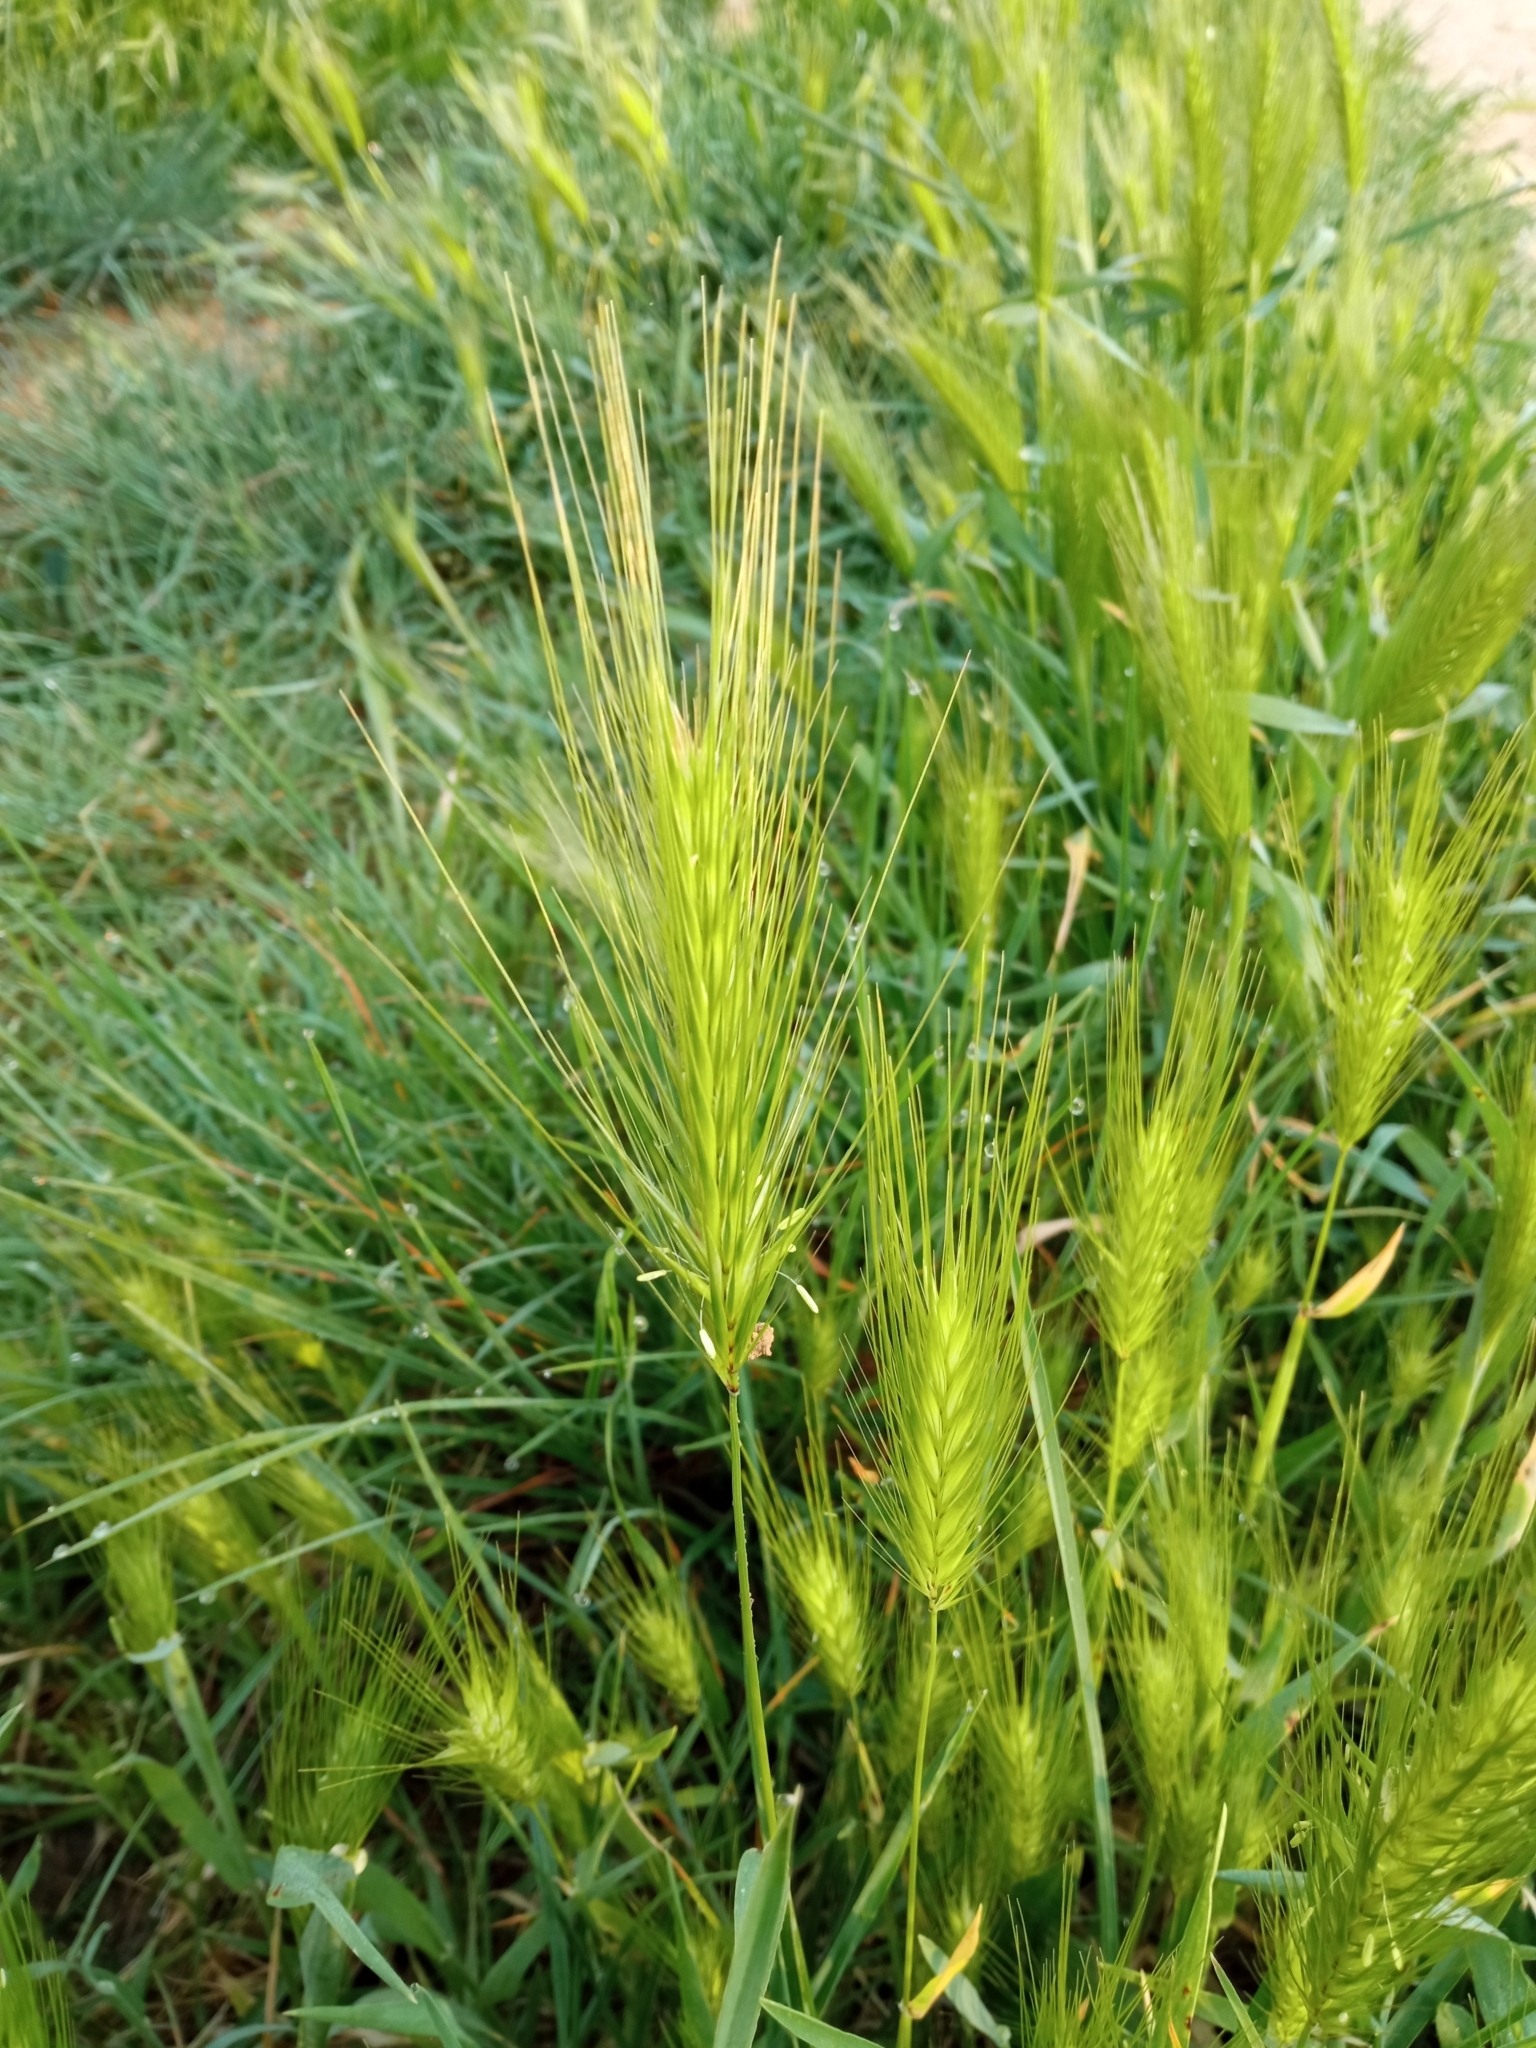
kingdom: Plantae
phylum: Tracheophyta
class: Liliopsida
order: Poales
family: Poaceae
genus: Hordeum
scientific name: Hordeum murinum
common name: Wall barley
